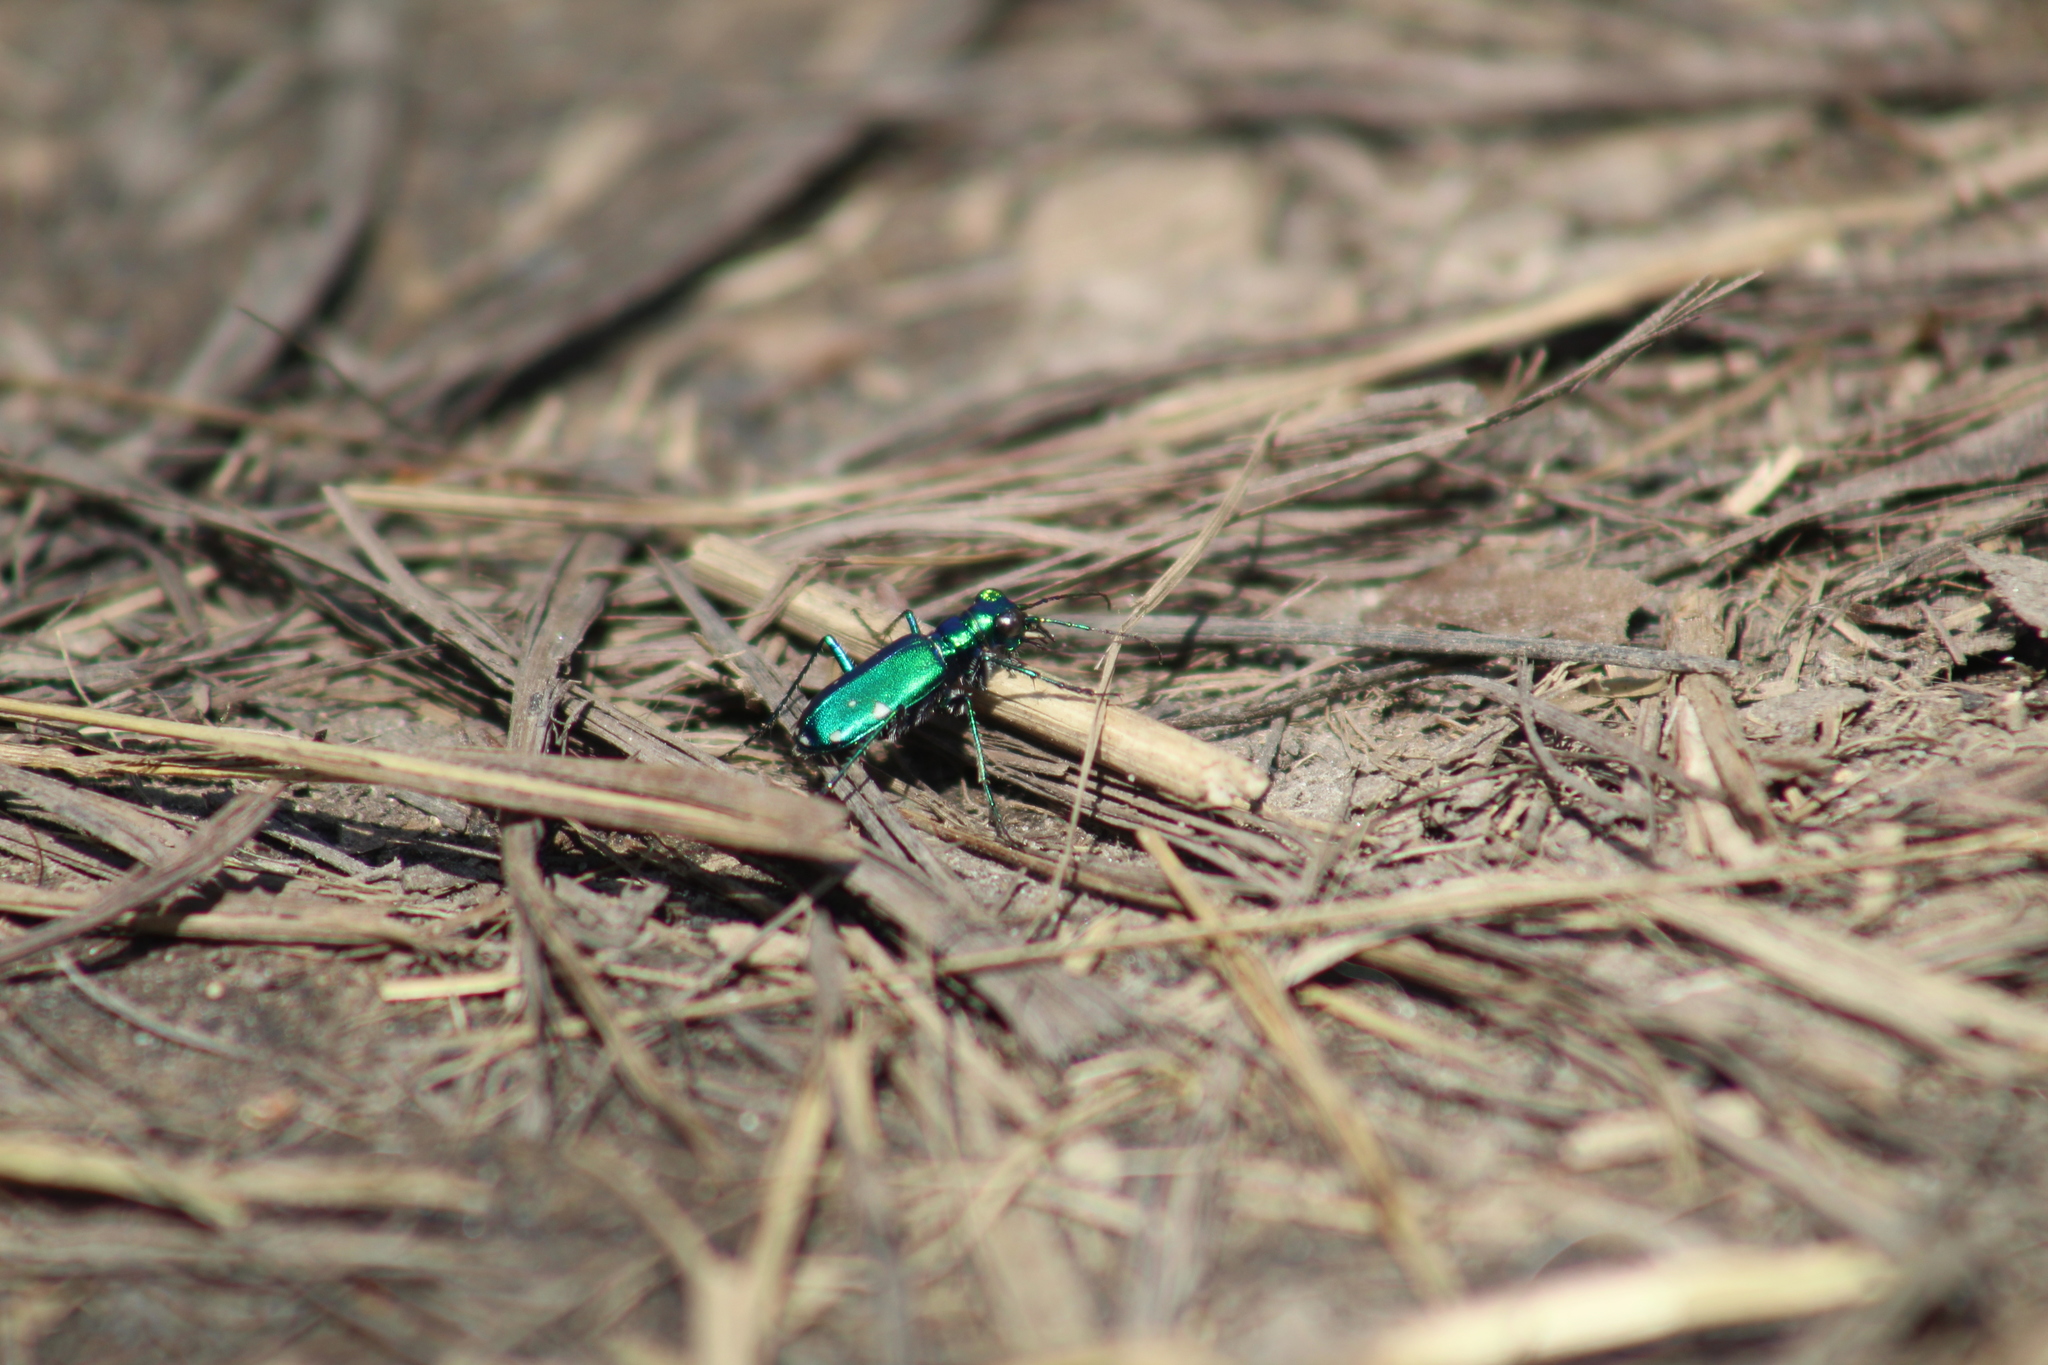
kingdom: Animalia
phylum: Arthropoda
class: Insecta
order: Coleoptera
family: Carabidae
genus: Cicindela
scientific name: Cicindela sexguttata
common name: Six-spotted tiger beetle
